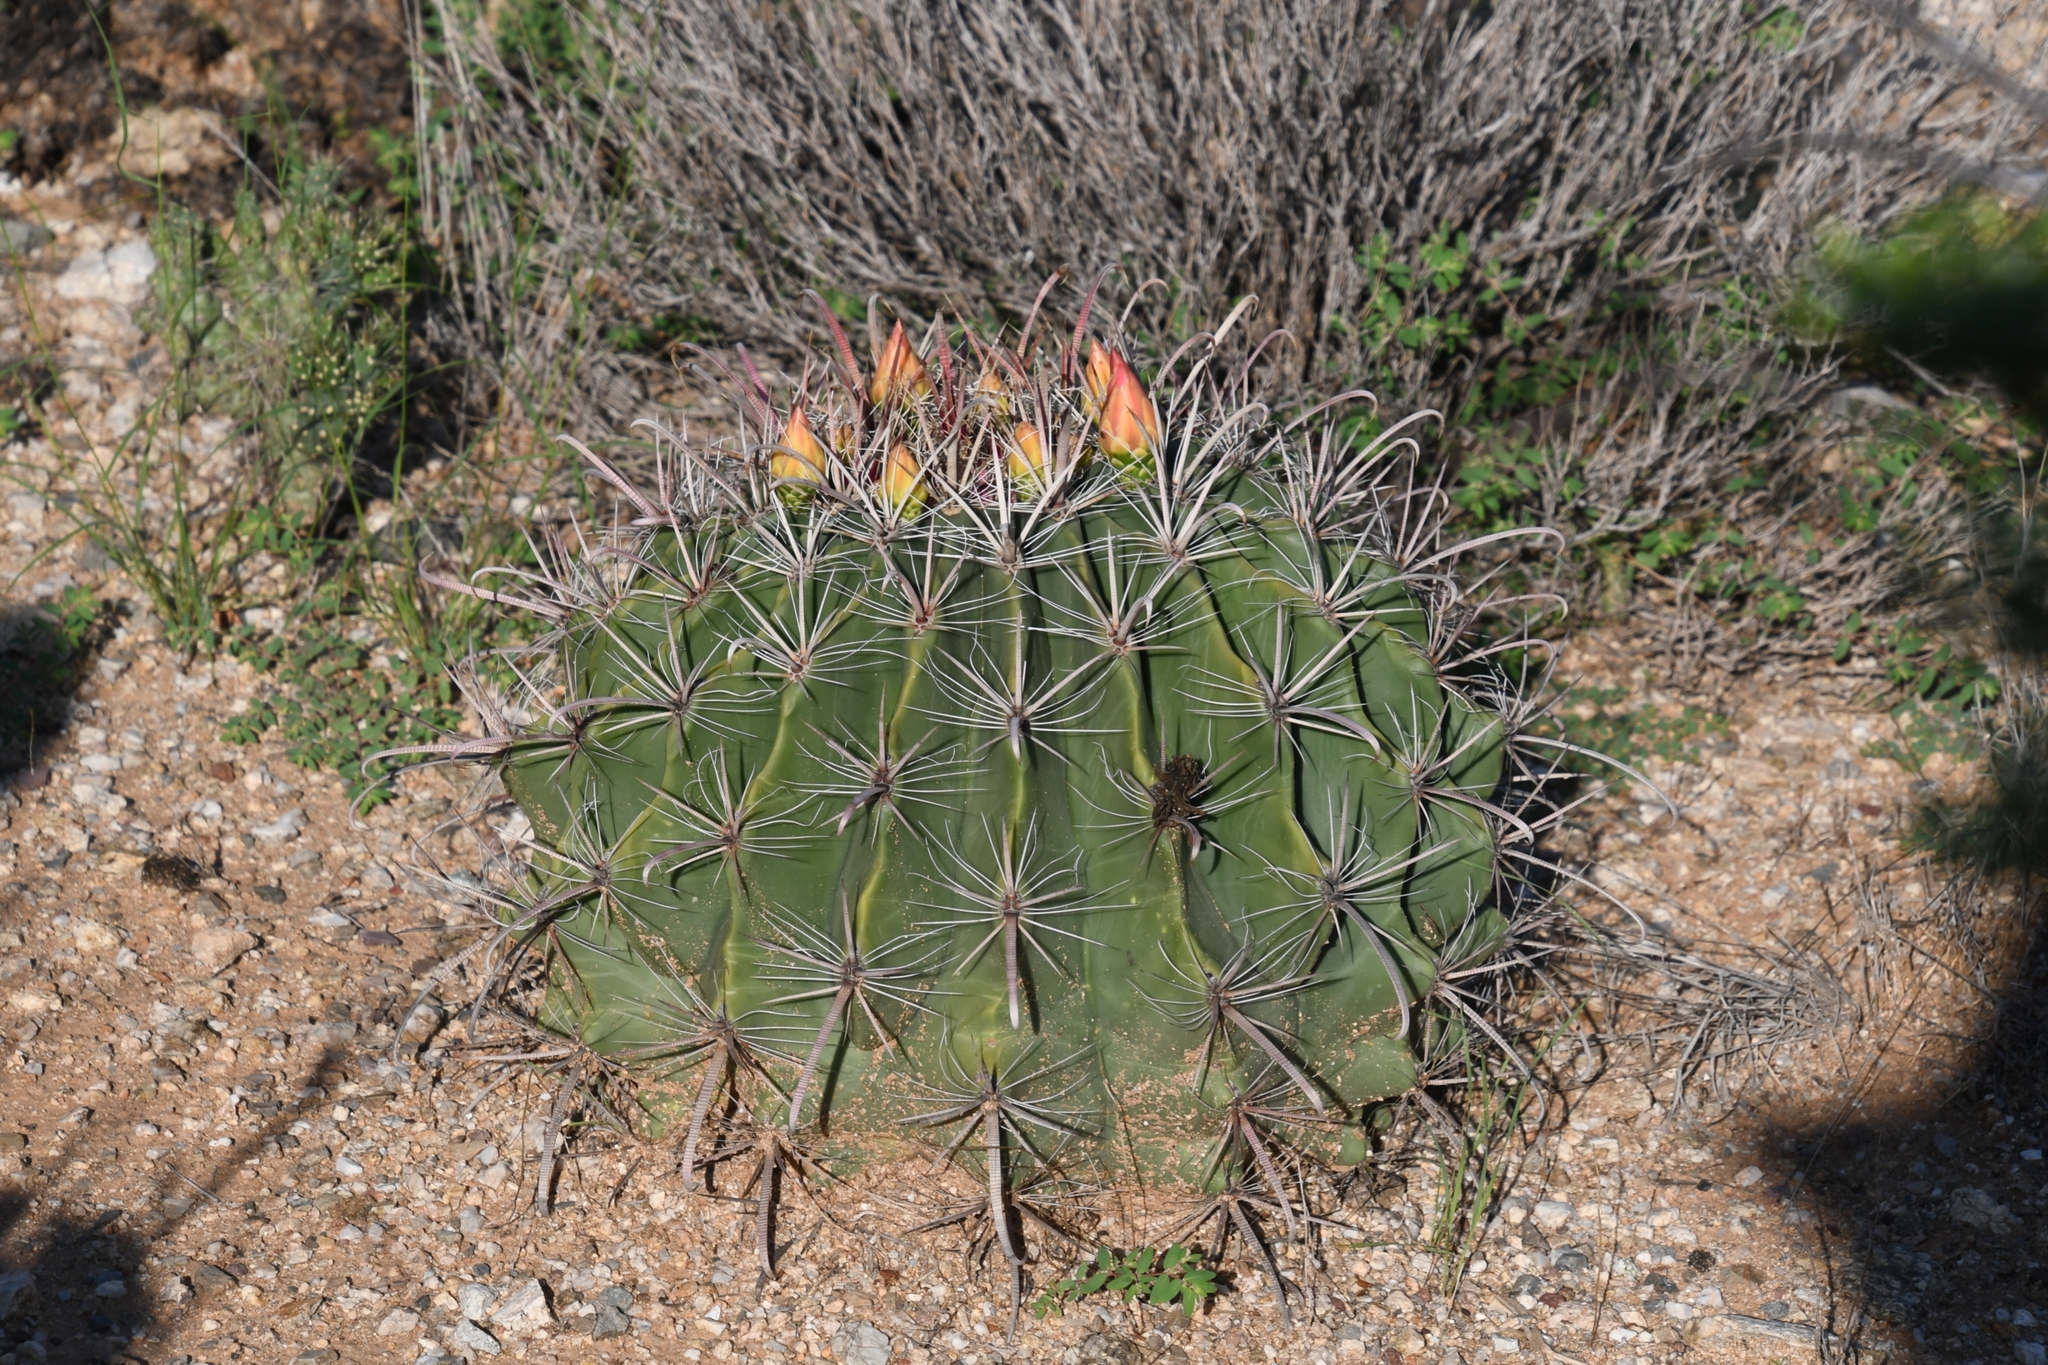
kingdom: Plantae
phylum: Tracheophyta
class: Magnoliopsida
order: Caryophyllales
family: Cactaceae
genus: Ferocactus
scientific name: Ferocactus wislizeni
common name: Candy barrel cactus
